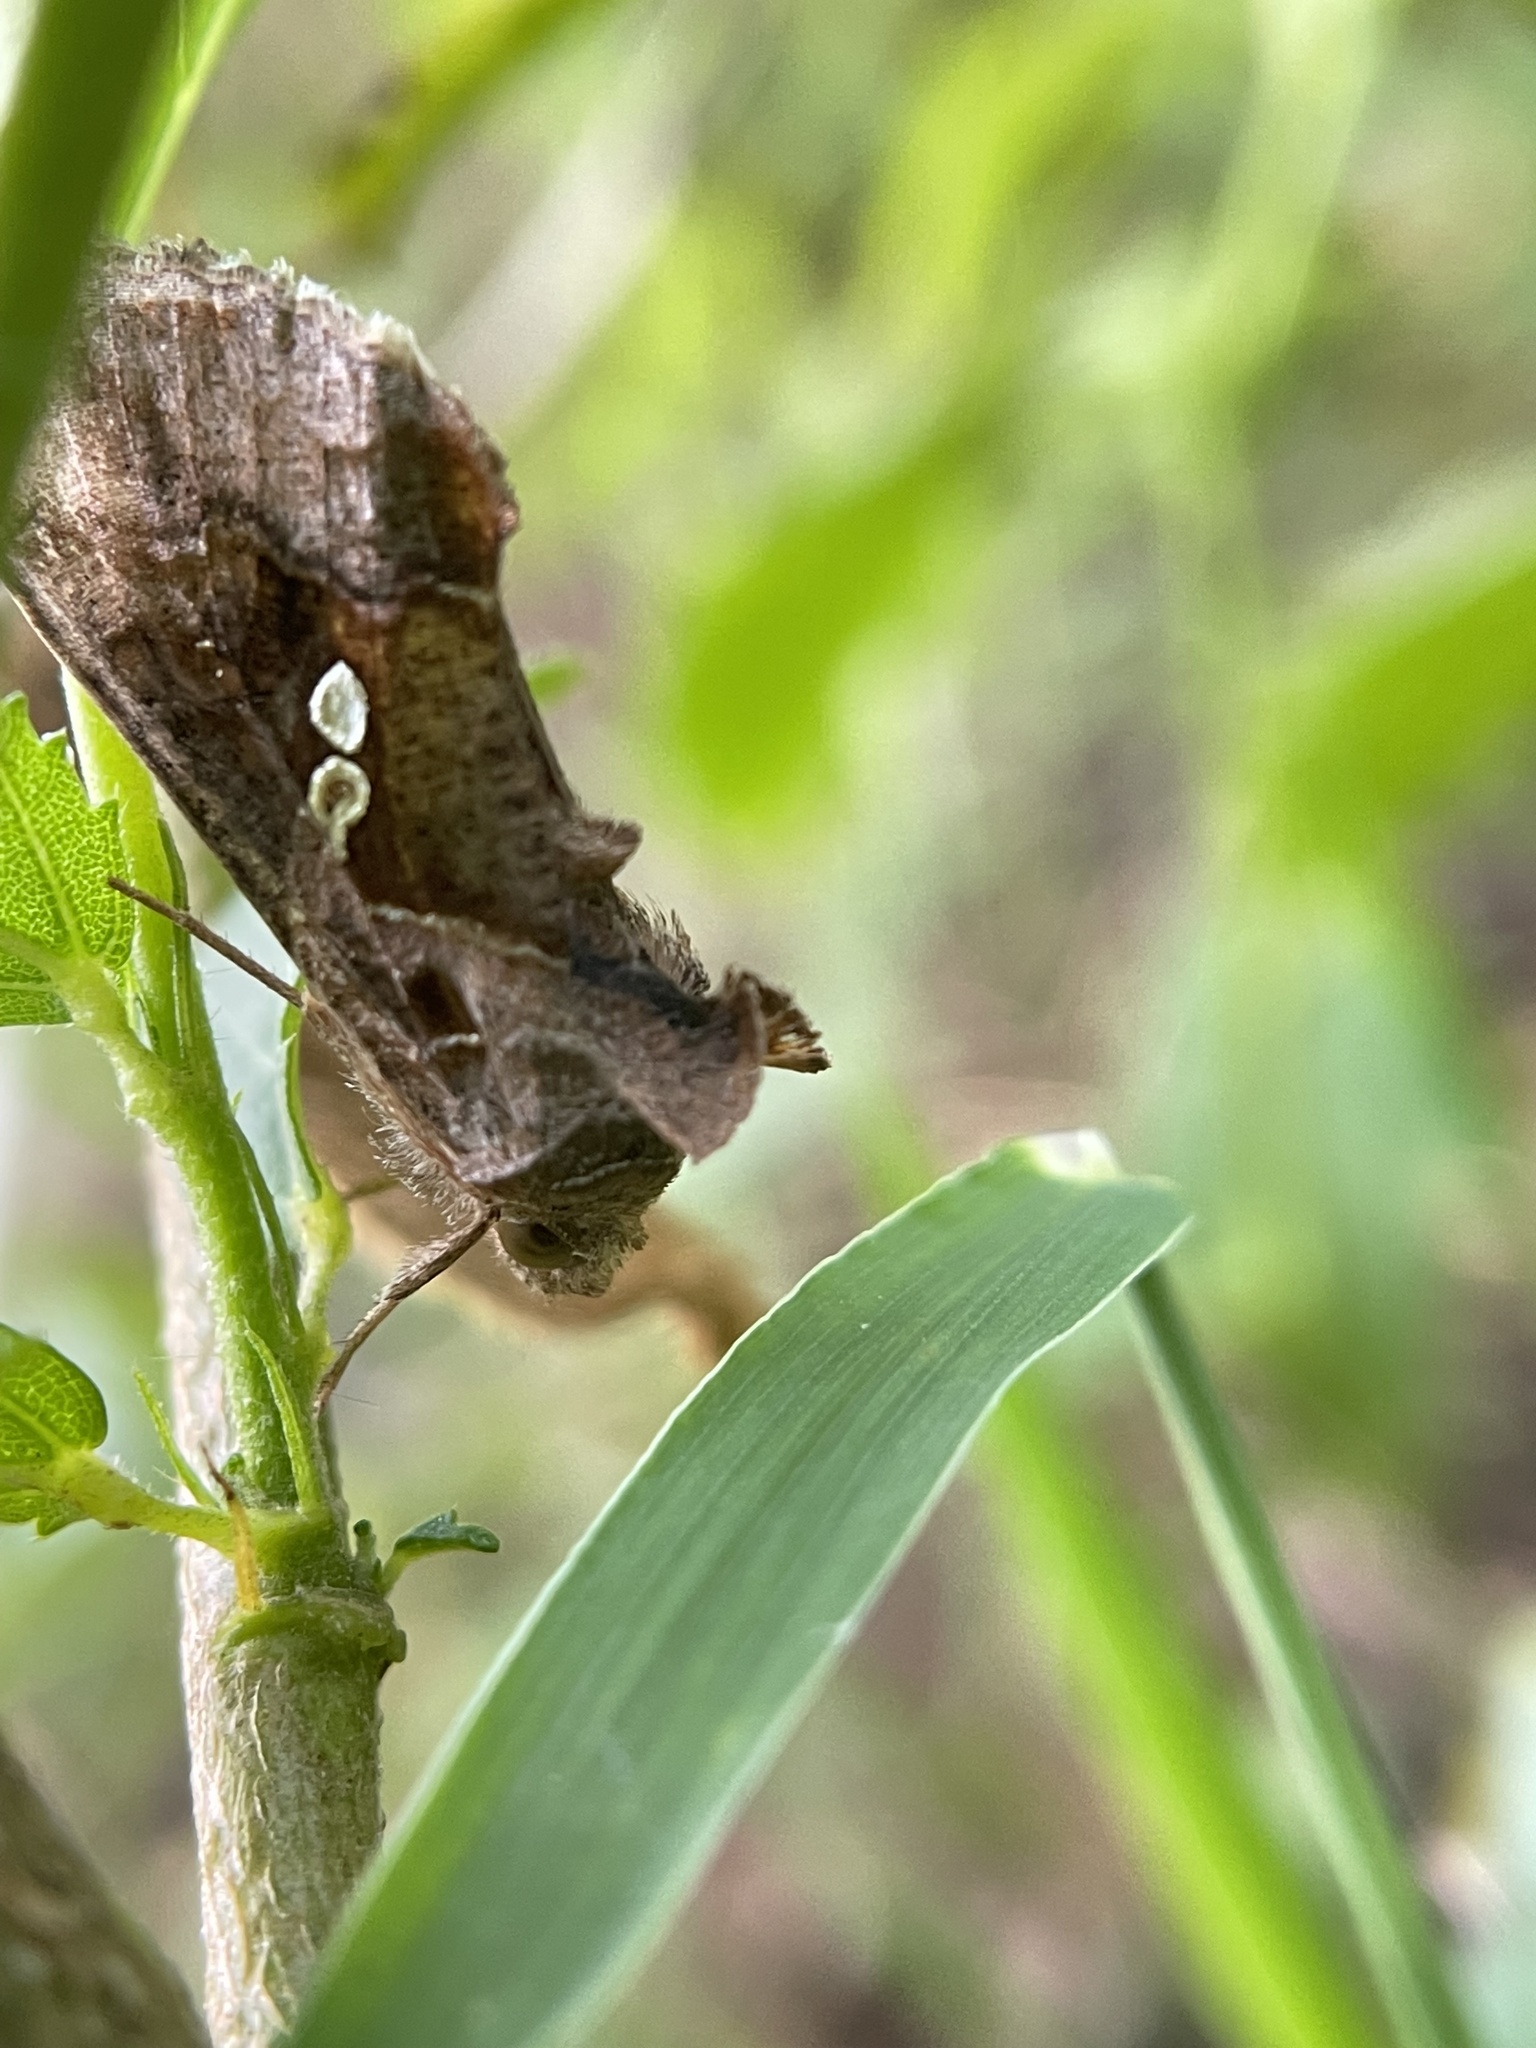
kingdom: Animalia
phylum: Arthropoda
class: Insecta
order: Lepidoptera
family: Noctuidae
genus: Chrysodeixis
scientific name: Chrysodeixis eriosoma
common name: Green garden looper
